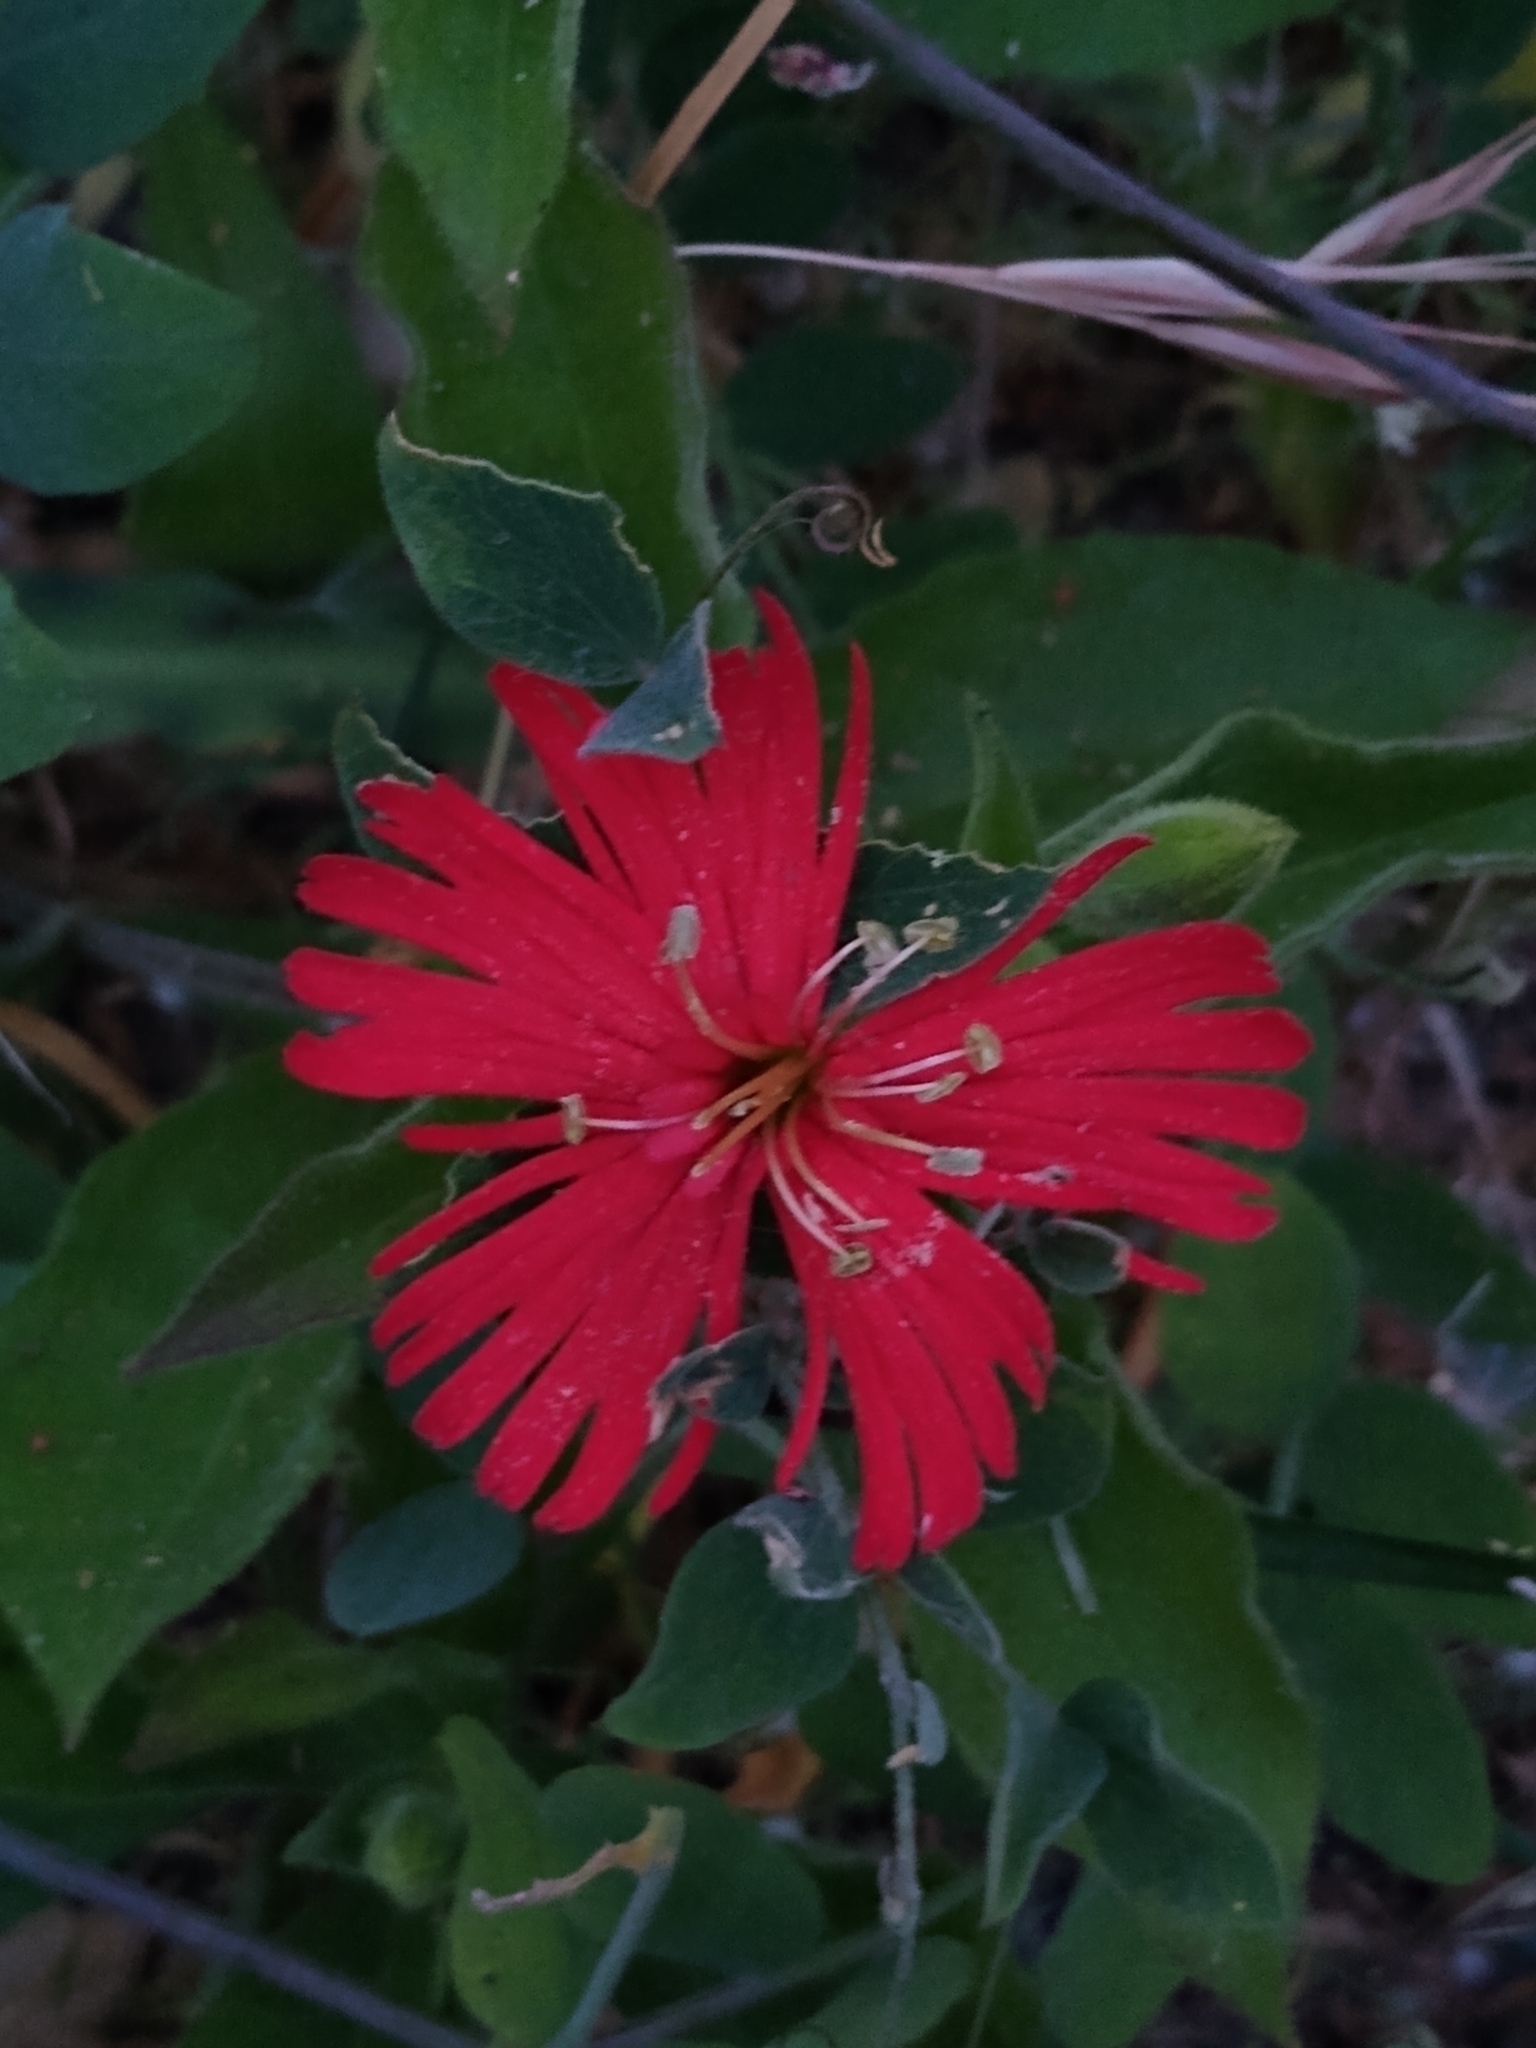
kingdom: Plantae
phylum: Tracheophyta
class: Magnoliopsida
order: Caryophyllales
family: Caryophyllaceae
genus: Silene
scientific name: Silene laciniata
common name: Indian-pink
